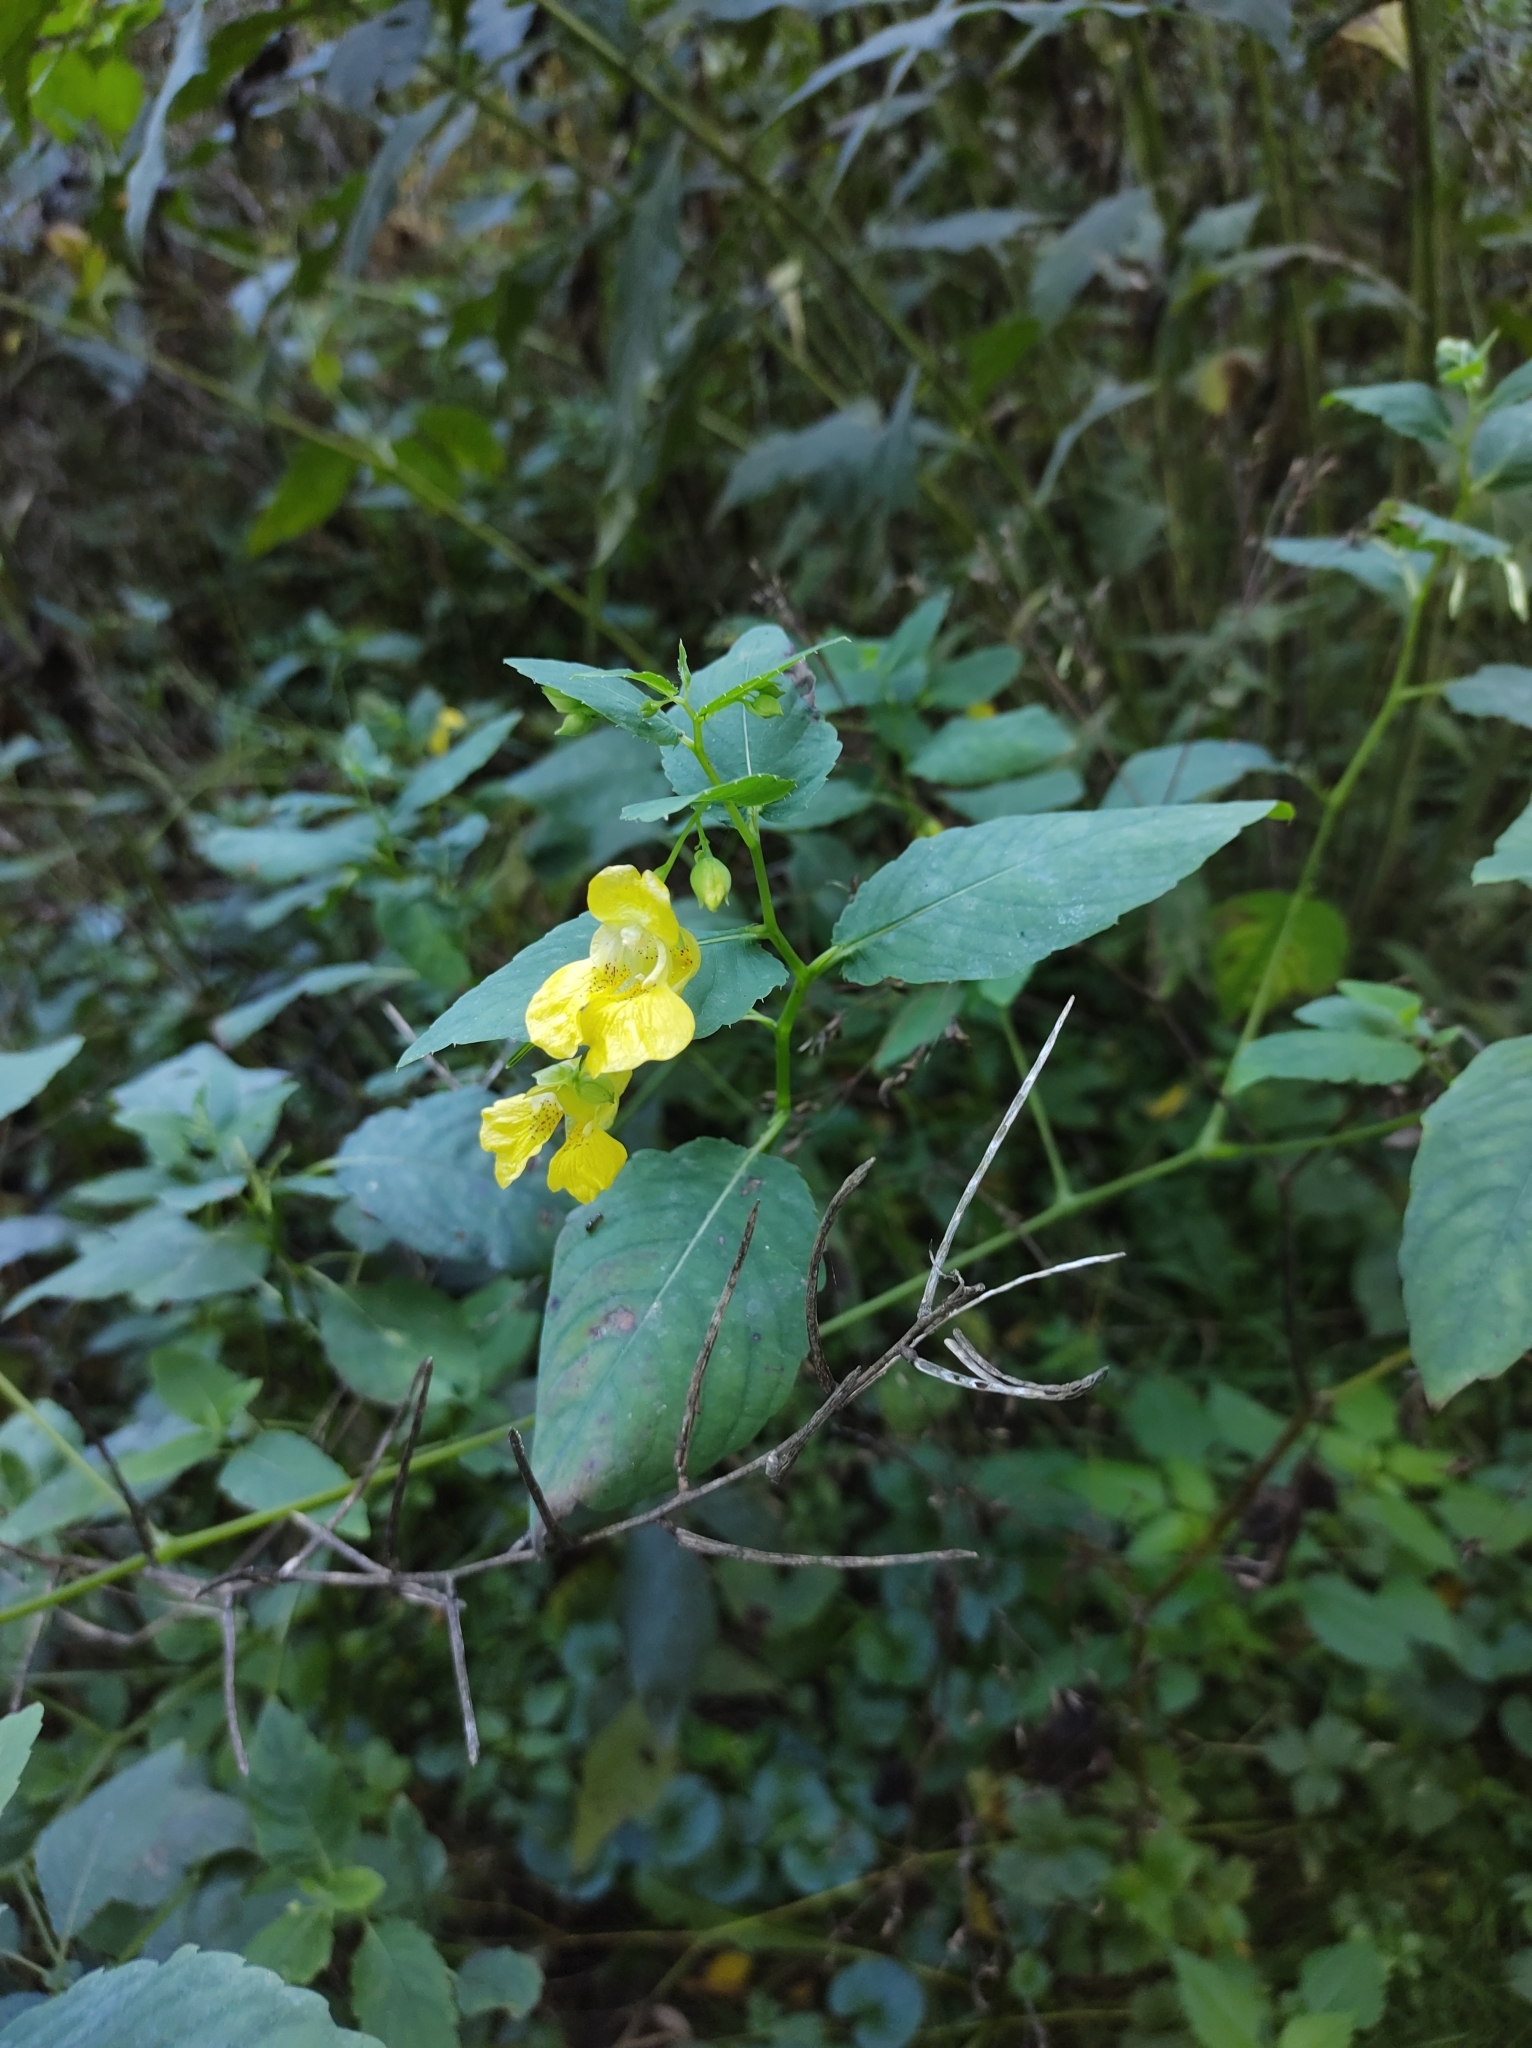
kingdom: Plantae
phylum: Tracheophyta
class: Magnoliopsida
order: Ericales
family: Balsaminaceae
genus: Impatiens
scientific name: Impatiens pallida
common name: Pale snapweed
